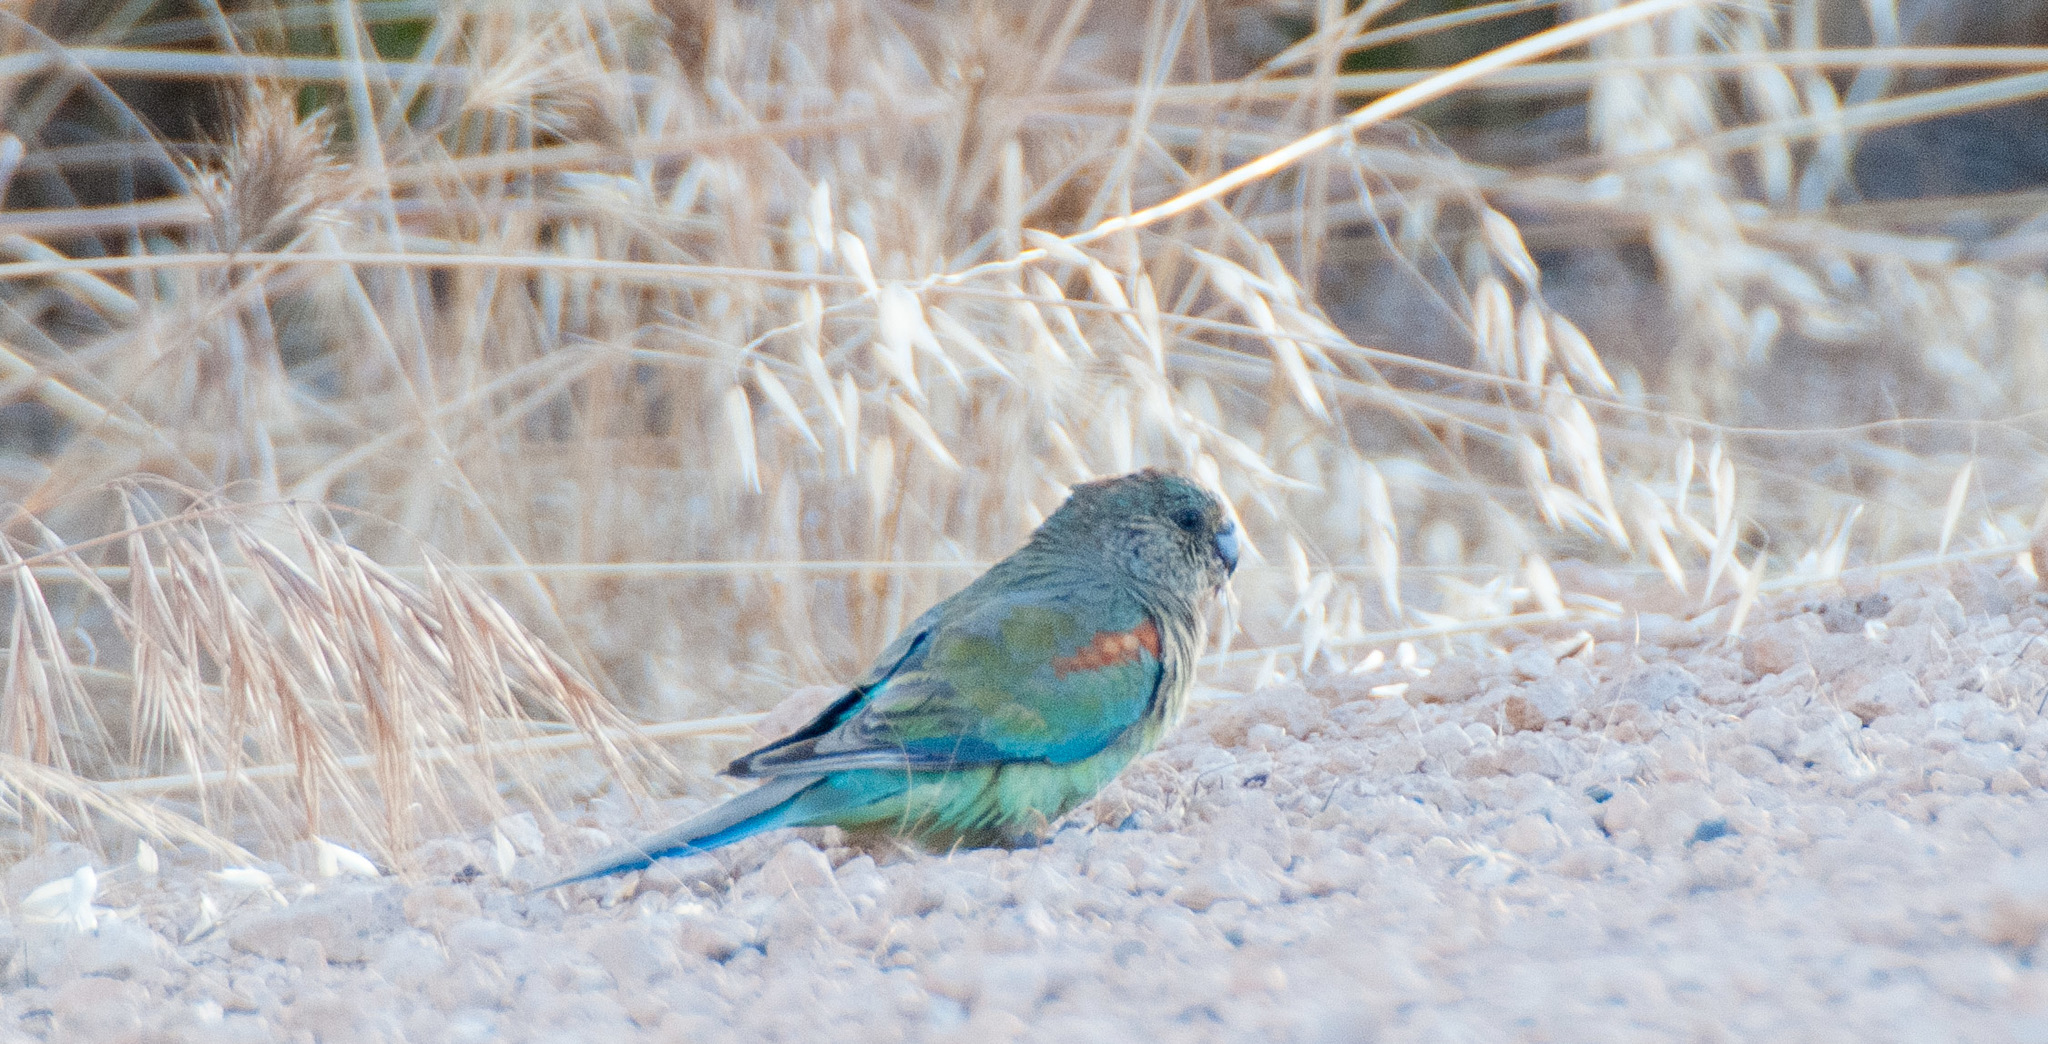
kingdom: Animalia
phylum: Chordata
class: Aves
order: Psittaciformes
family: Psittaculidae
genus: Psephotellus
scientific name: Psephotellus varius
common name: Mulga parrot
